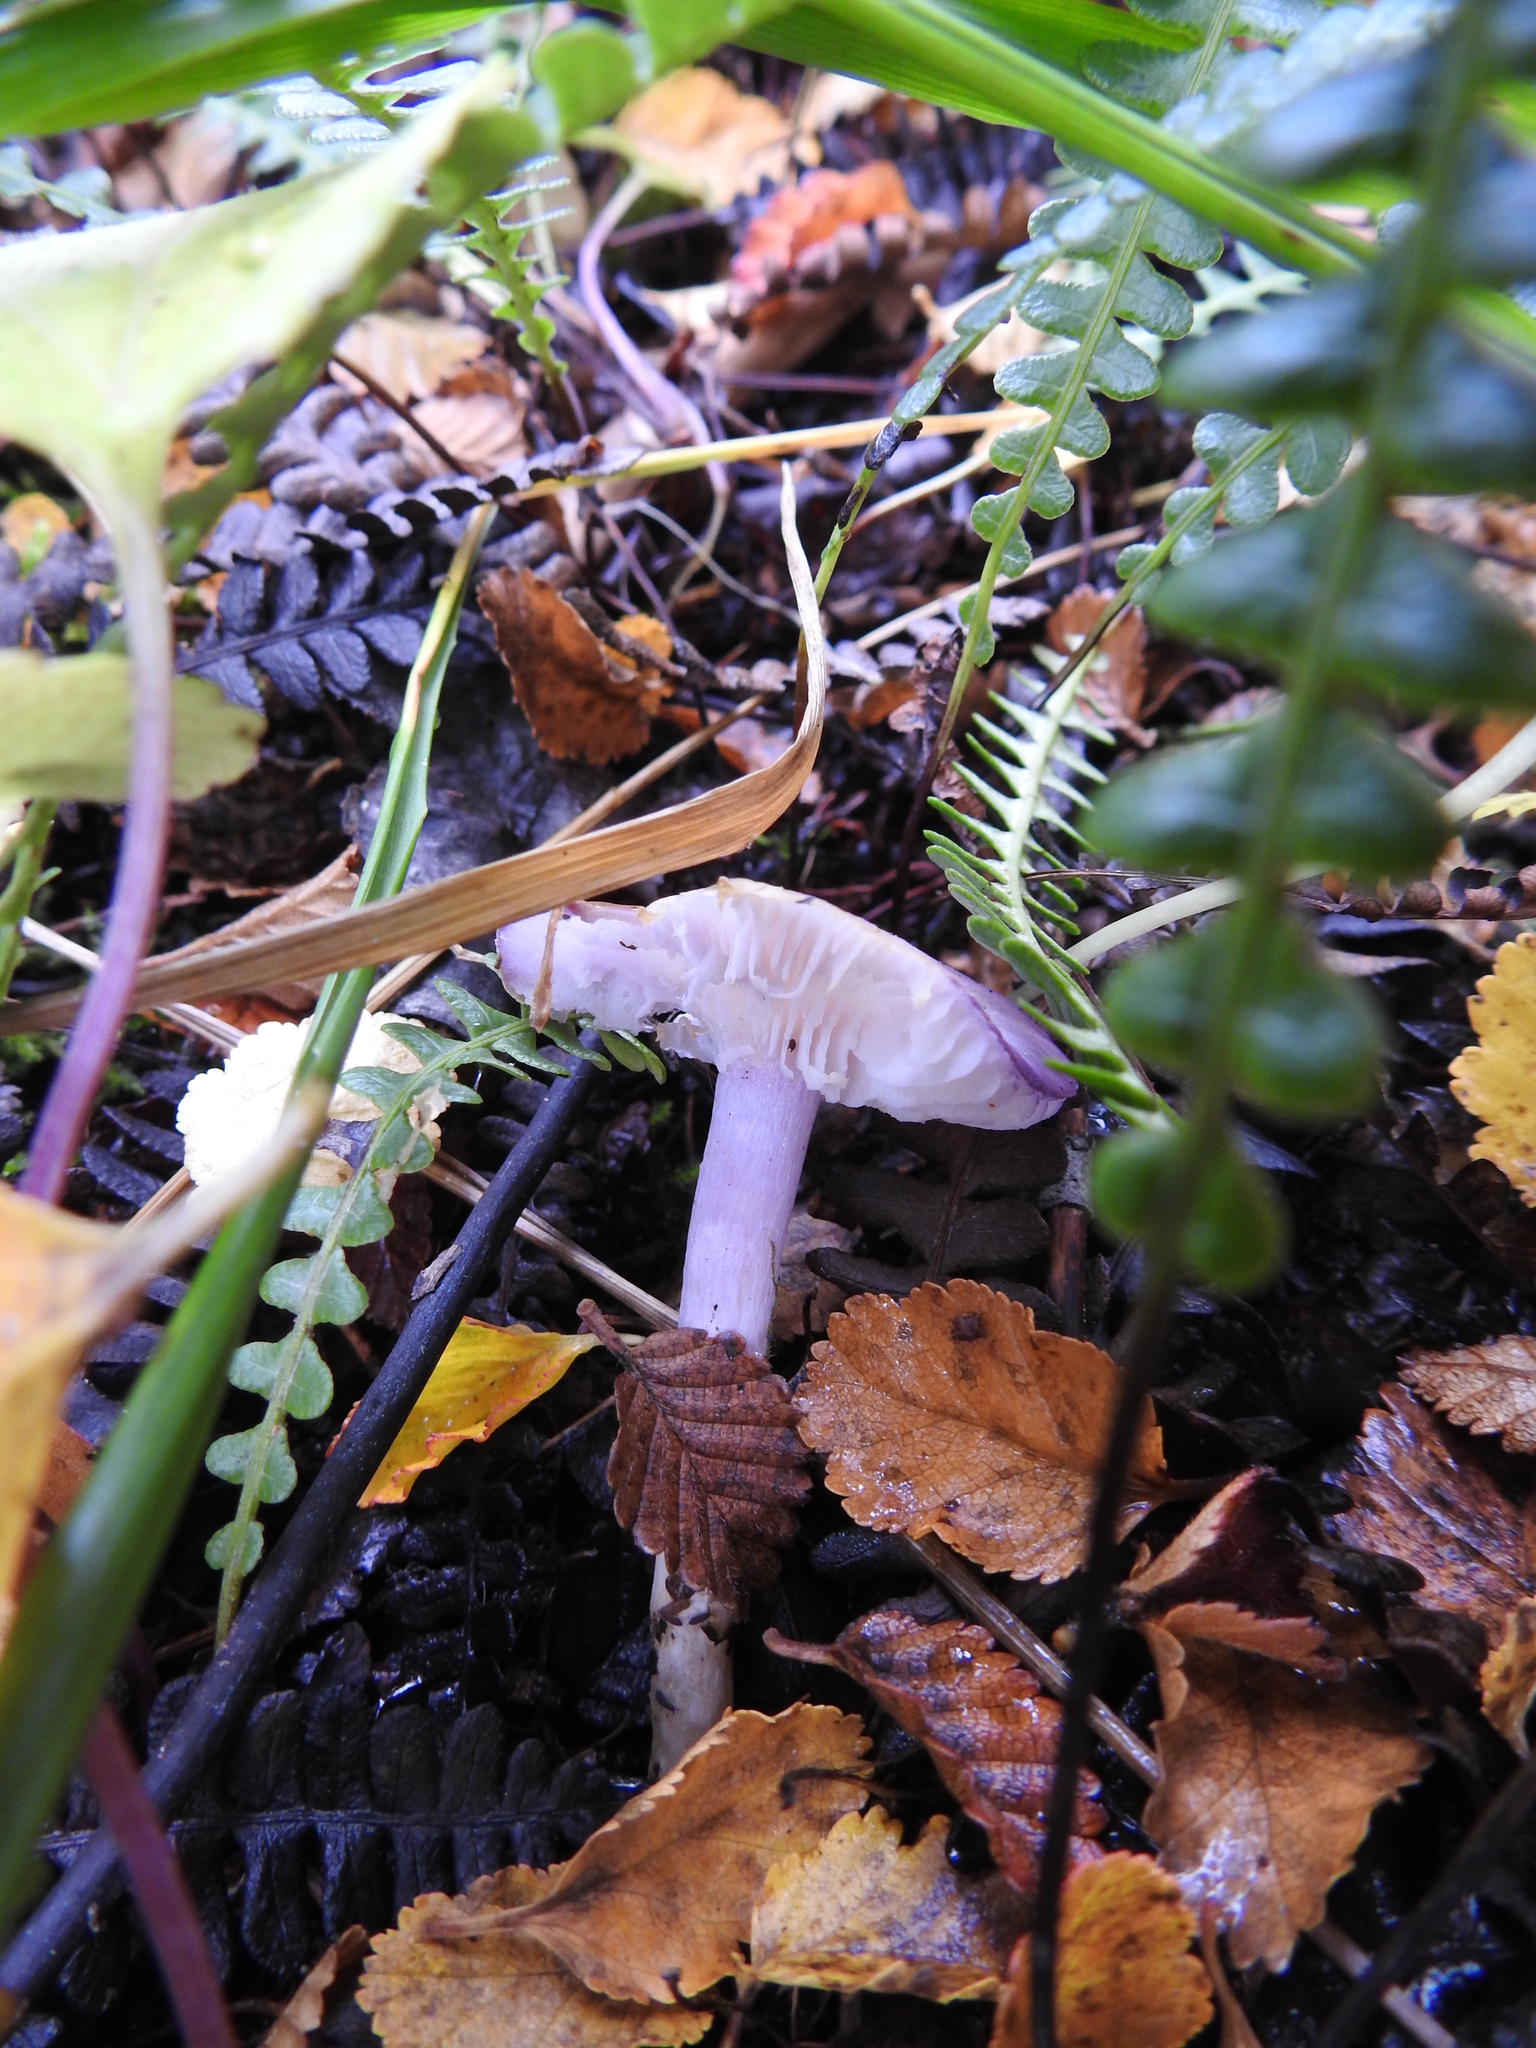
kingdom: Fungi
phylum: Basidiomycota
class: Agaricomycetes
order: Agaricales
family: Cortinariaceae
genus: Cortinarius
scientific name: Cortinarius magellanicus
